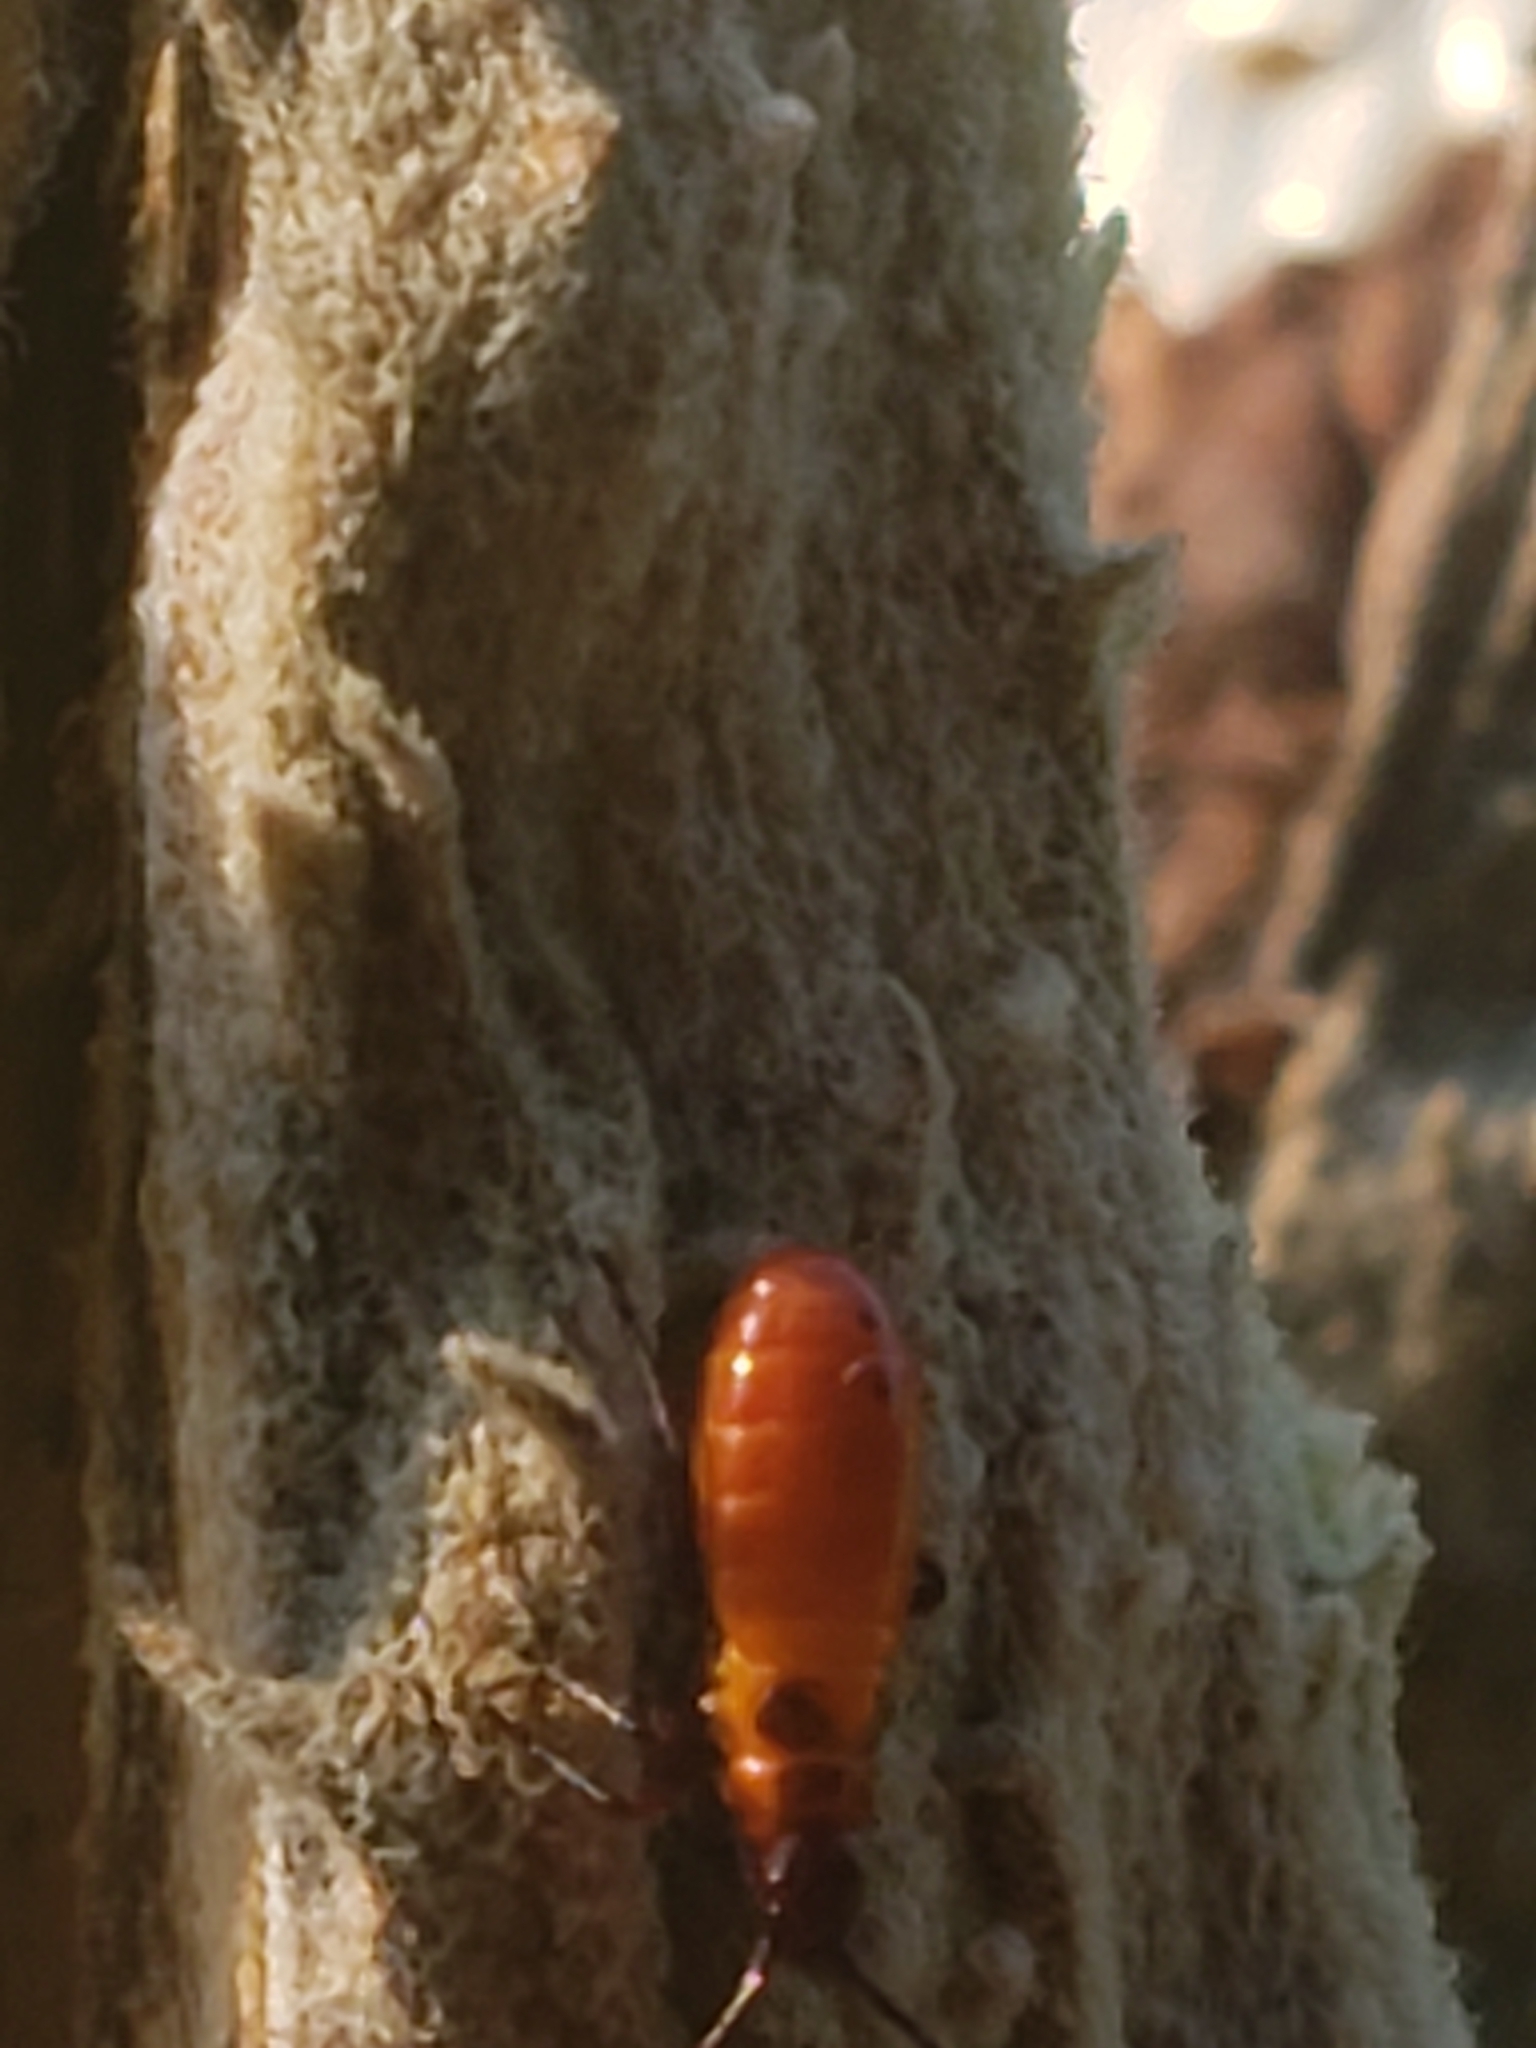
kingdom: Animalia
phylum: Arthropoda
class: Insecta
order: Hemiptera
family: Lygaeidae
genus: Oncopeltus
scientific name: Oncopeltus fasciatus
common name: Large milkweed bug
